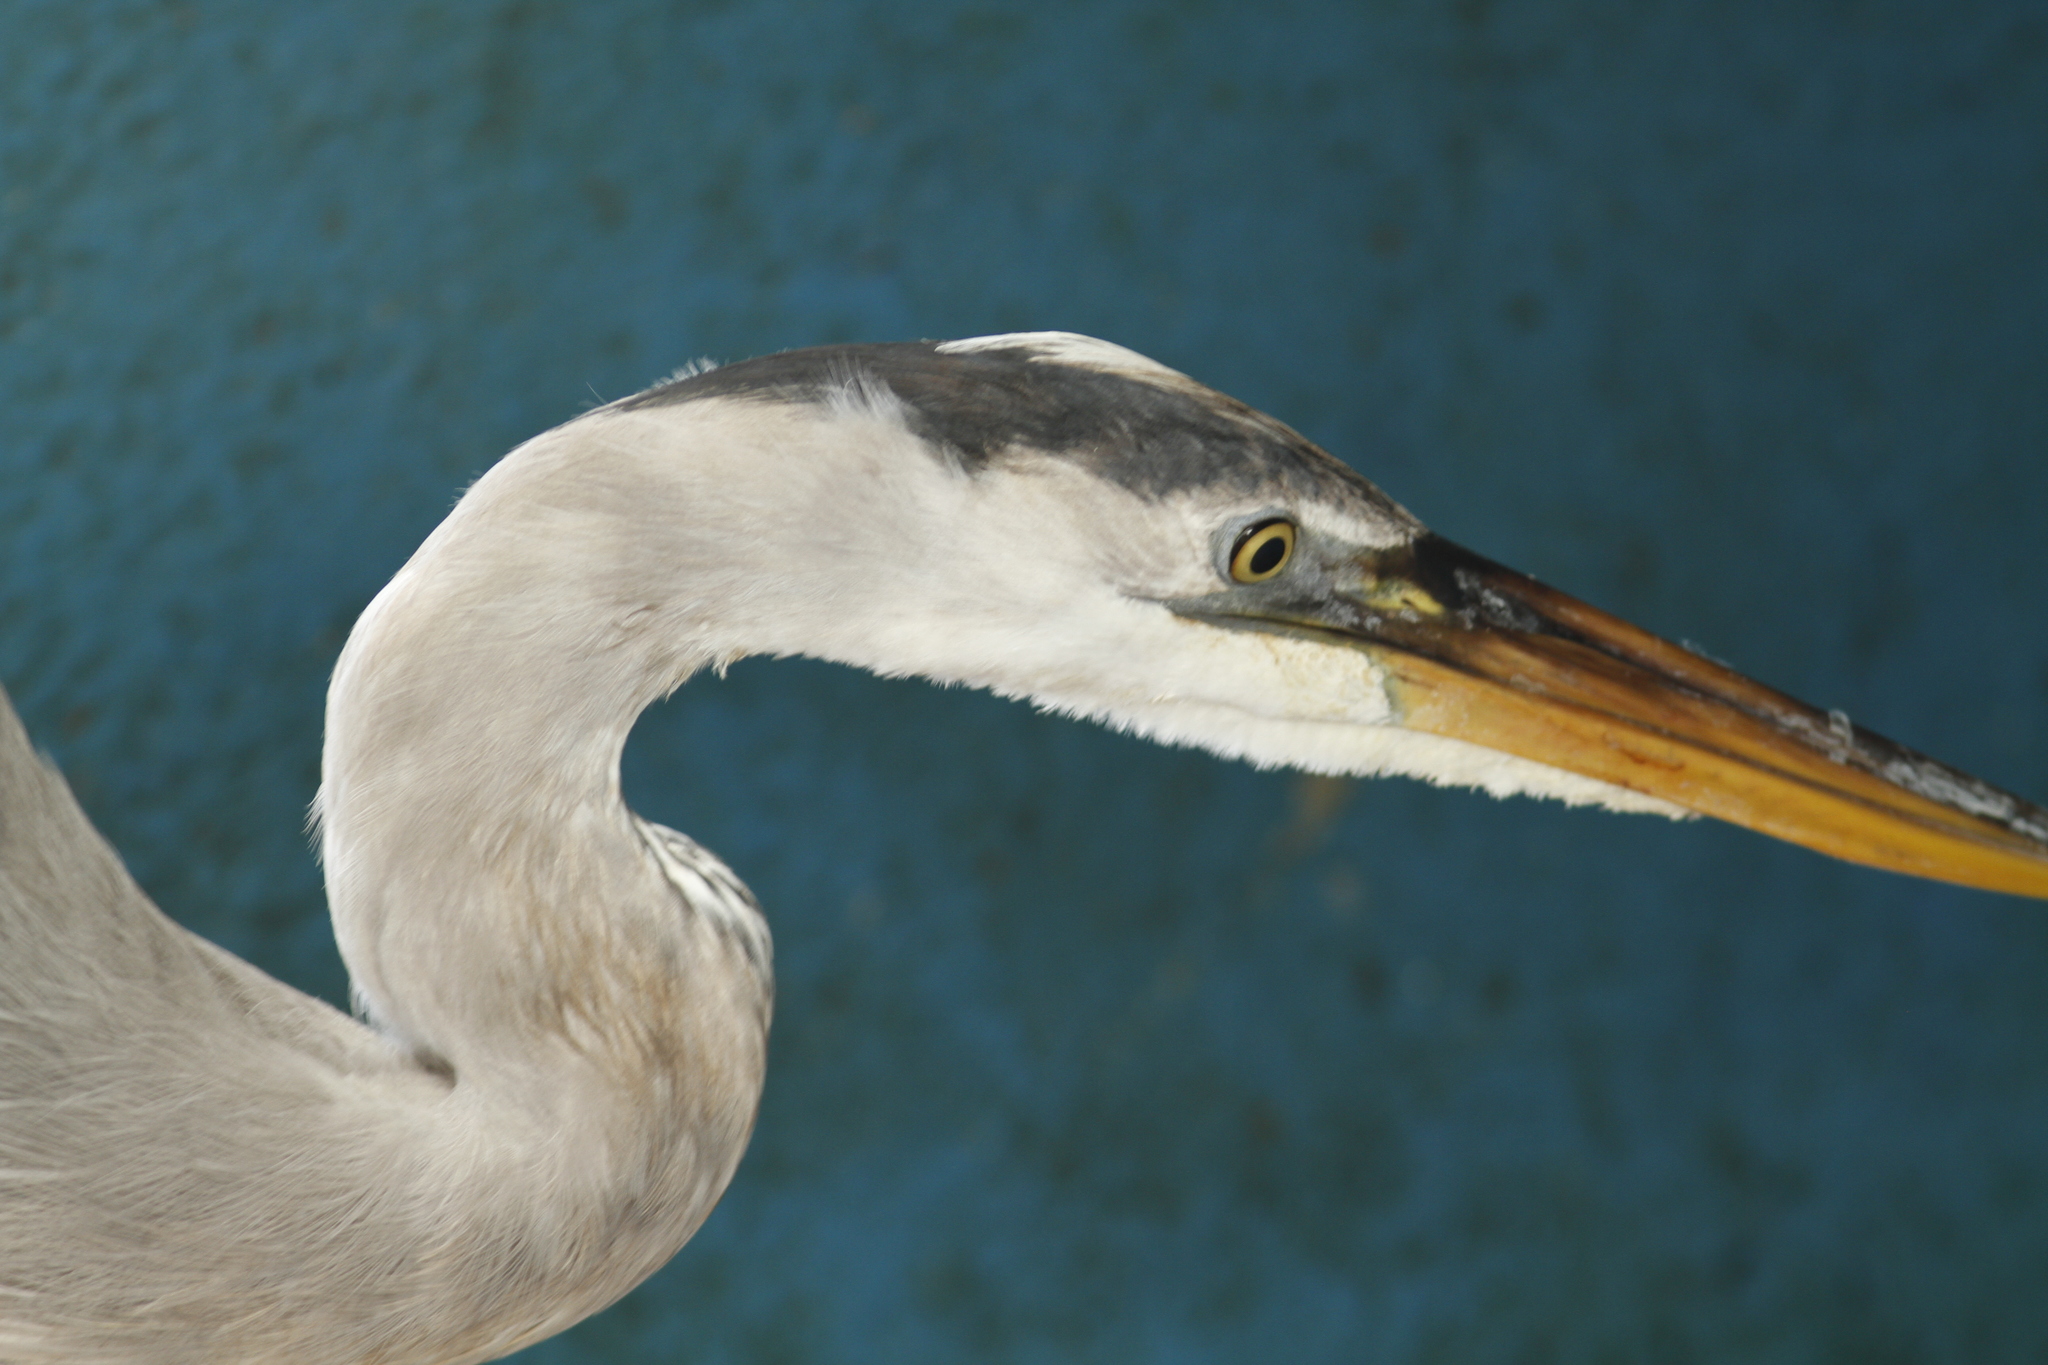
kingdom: Animalia
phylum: Chordata
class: Aves
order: Pelecaniformes
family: Ardeidae
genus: Ardea
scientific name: Ardea herodias
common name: Great blue heron
